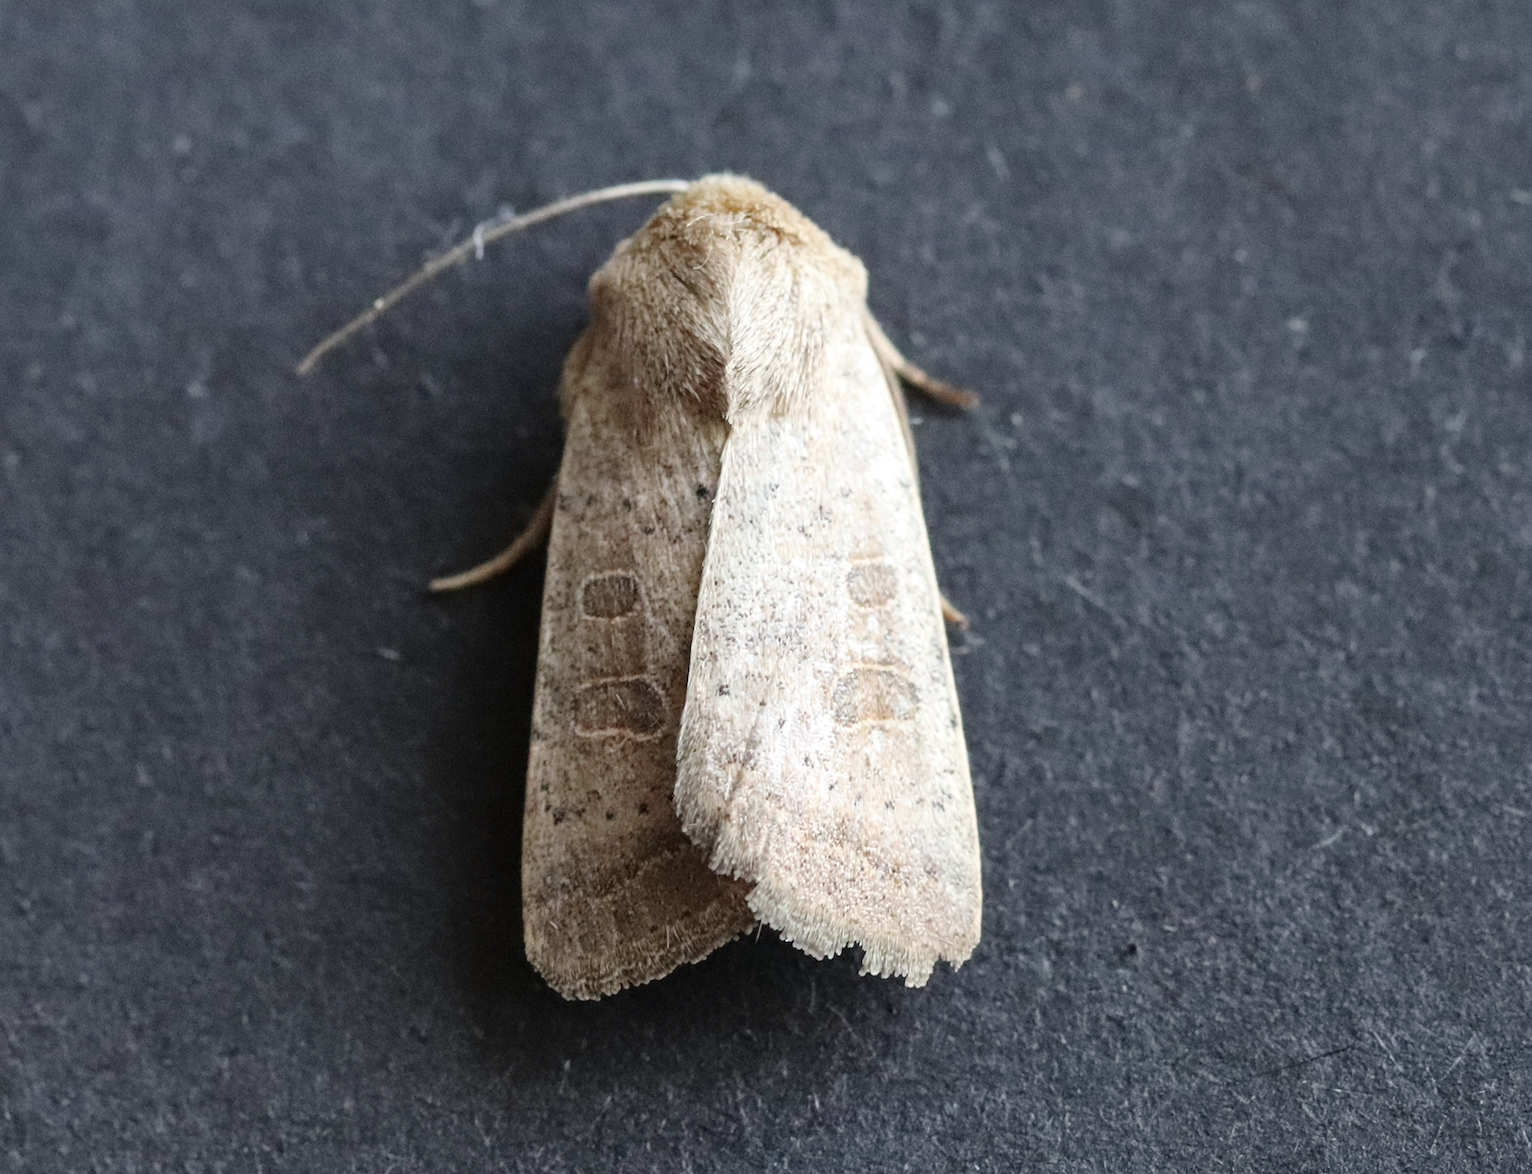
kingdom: Animalia
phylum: Arthropoda
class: Insecta
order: Lepidoptera
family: Noctuidae
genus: Hoplodrina
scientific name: Hoplodrina ambigua
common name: Vine's rustic
